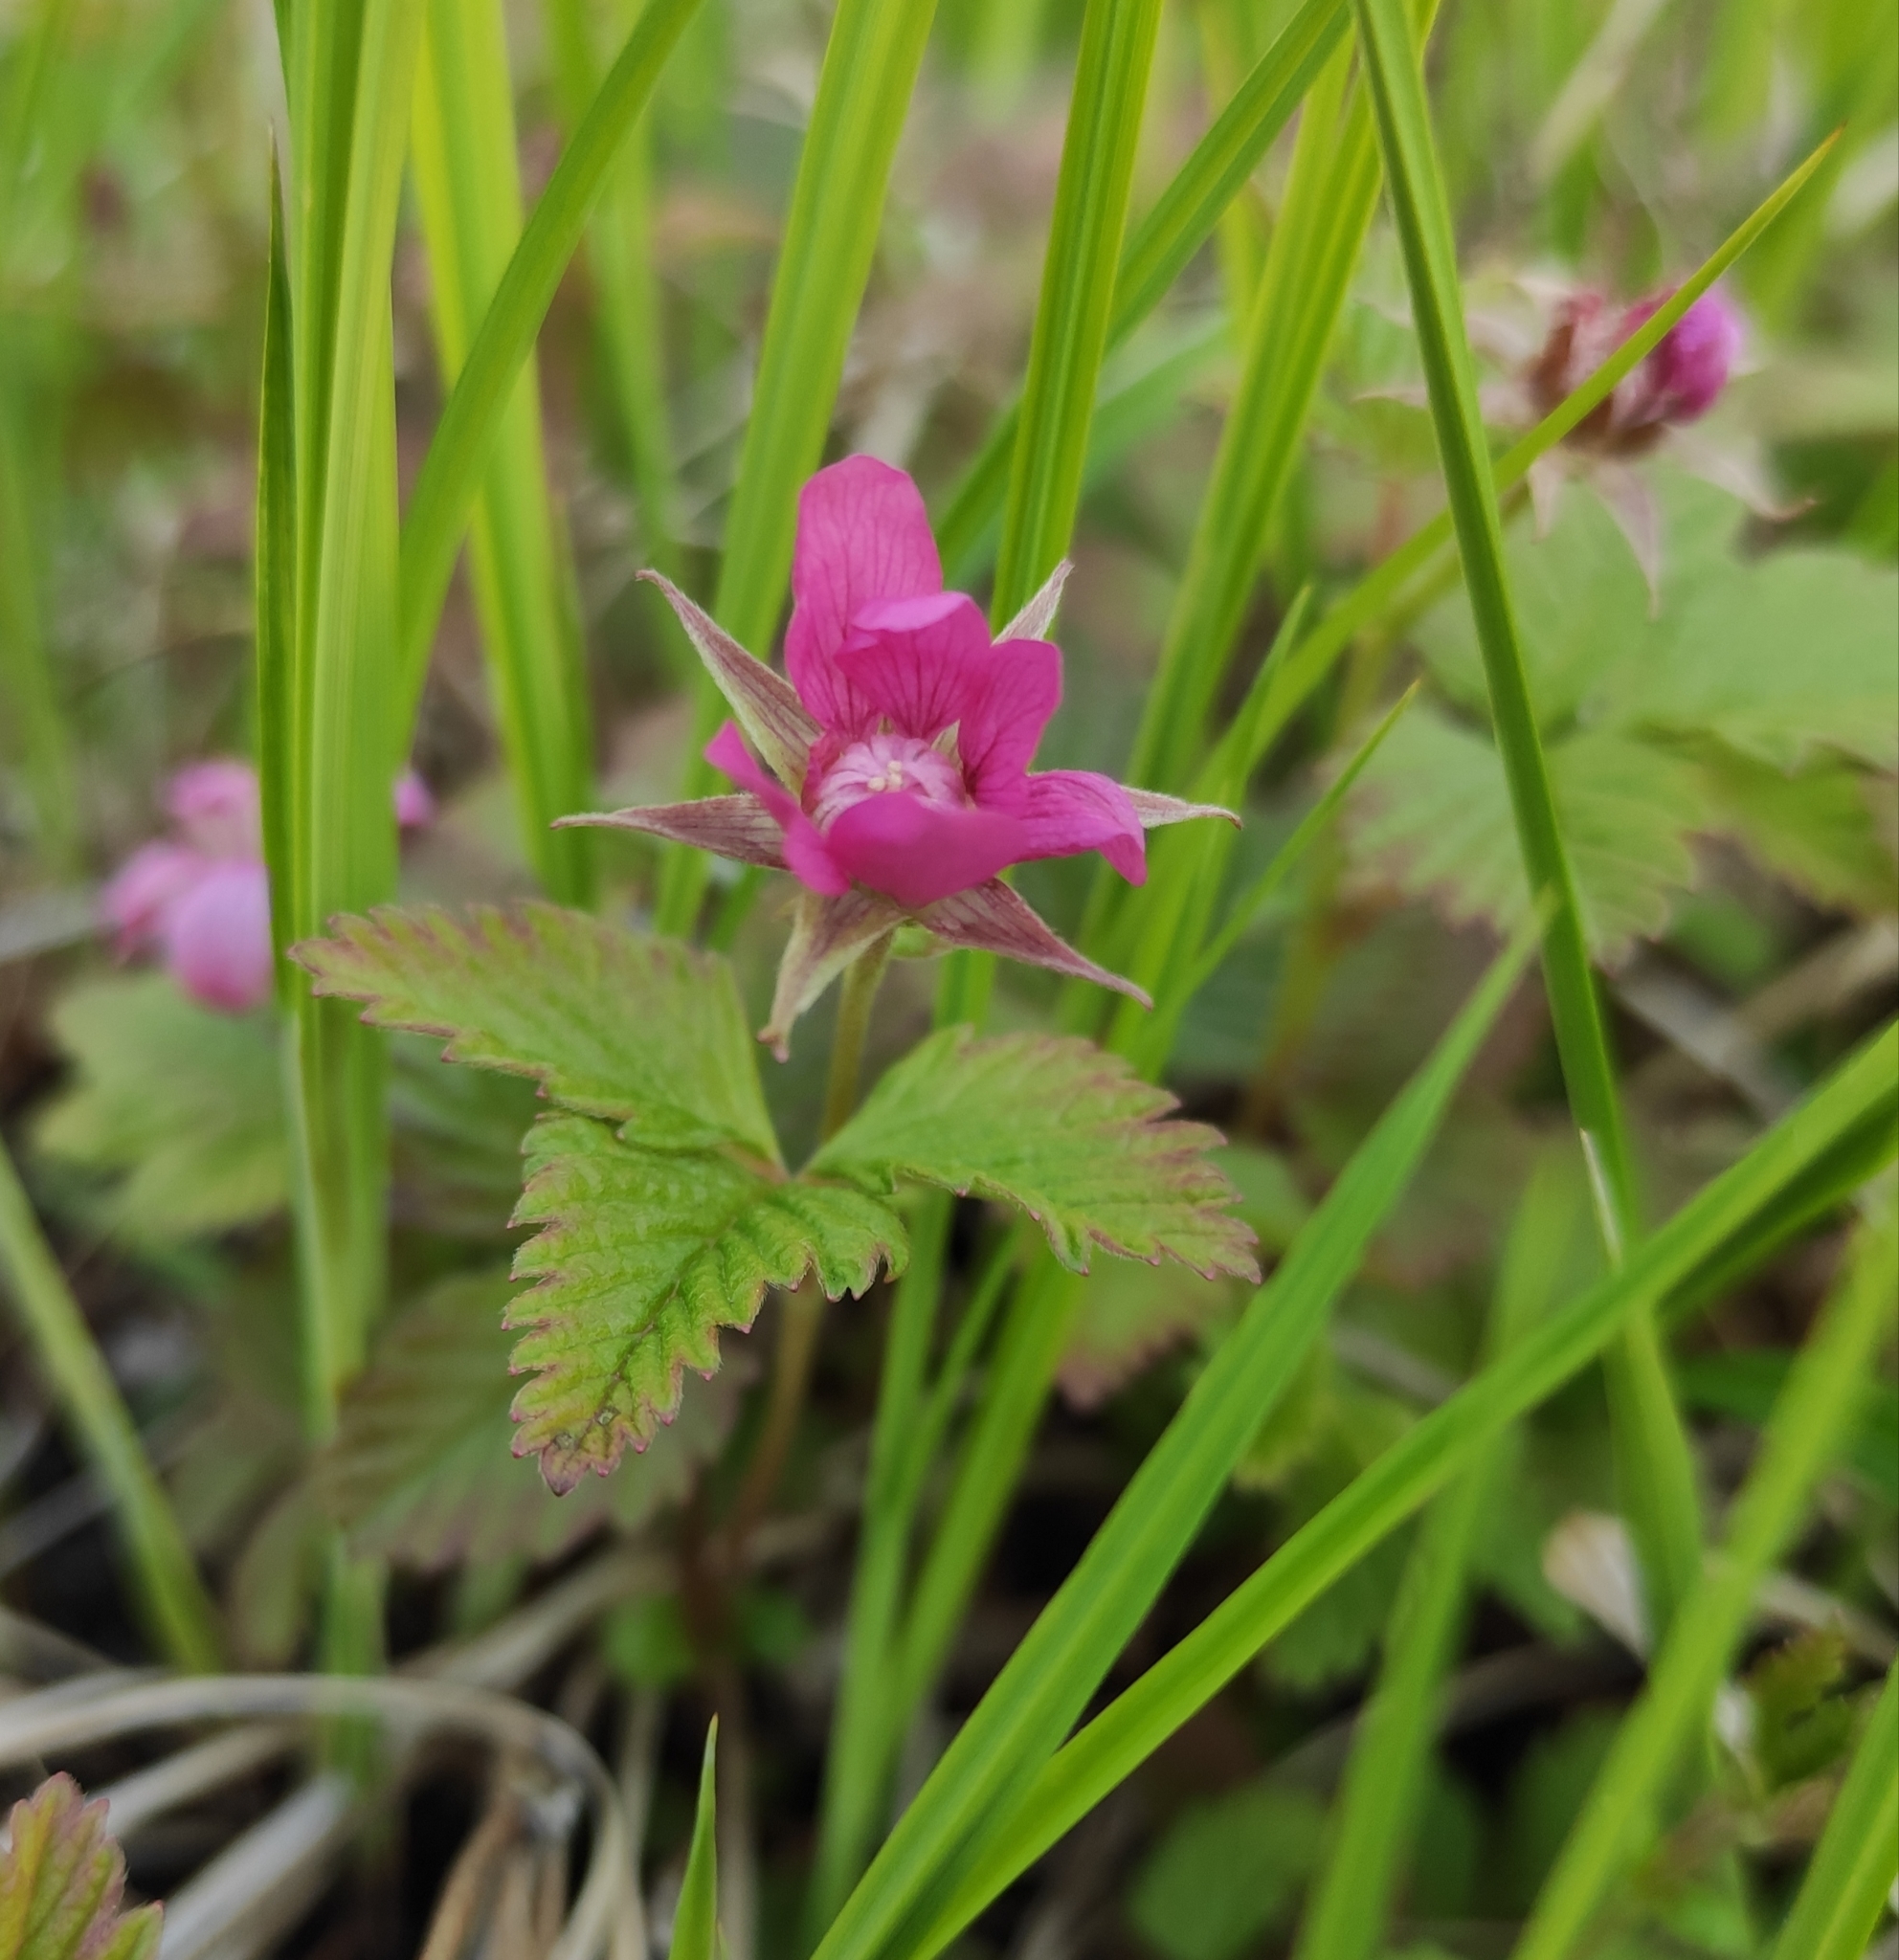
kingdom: Plantae
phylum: Tracheophyta
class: Magnoliopsida
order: Rosales
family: Rosaceae
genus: Rubus
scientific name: Rubus arcticus
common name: Arctic bramble
